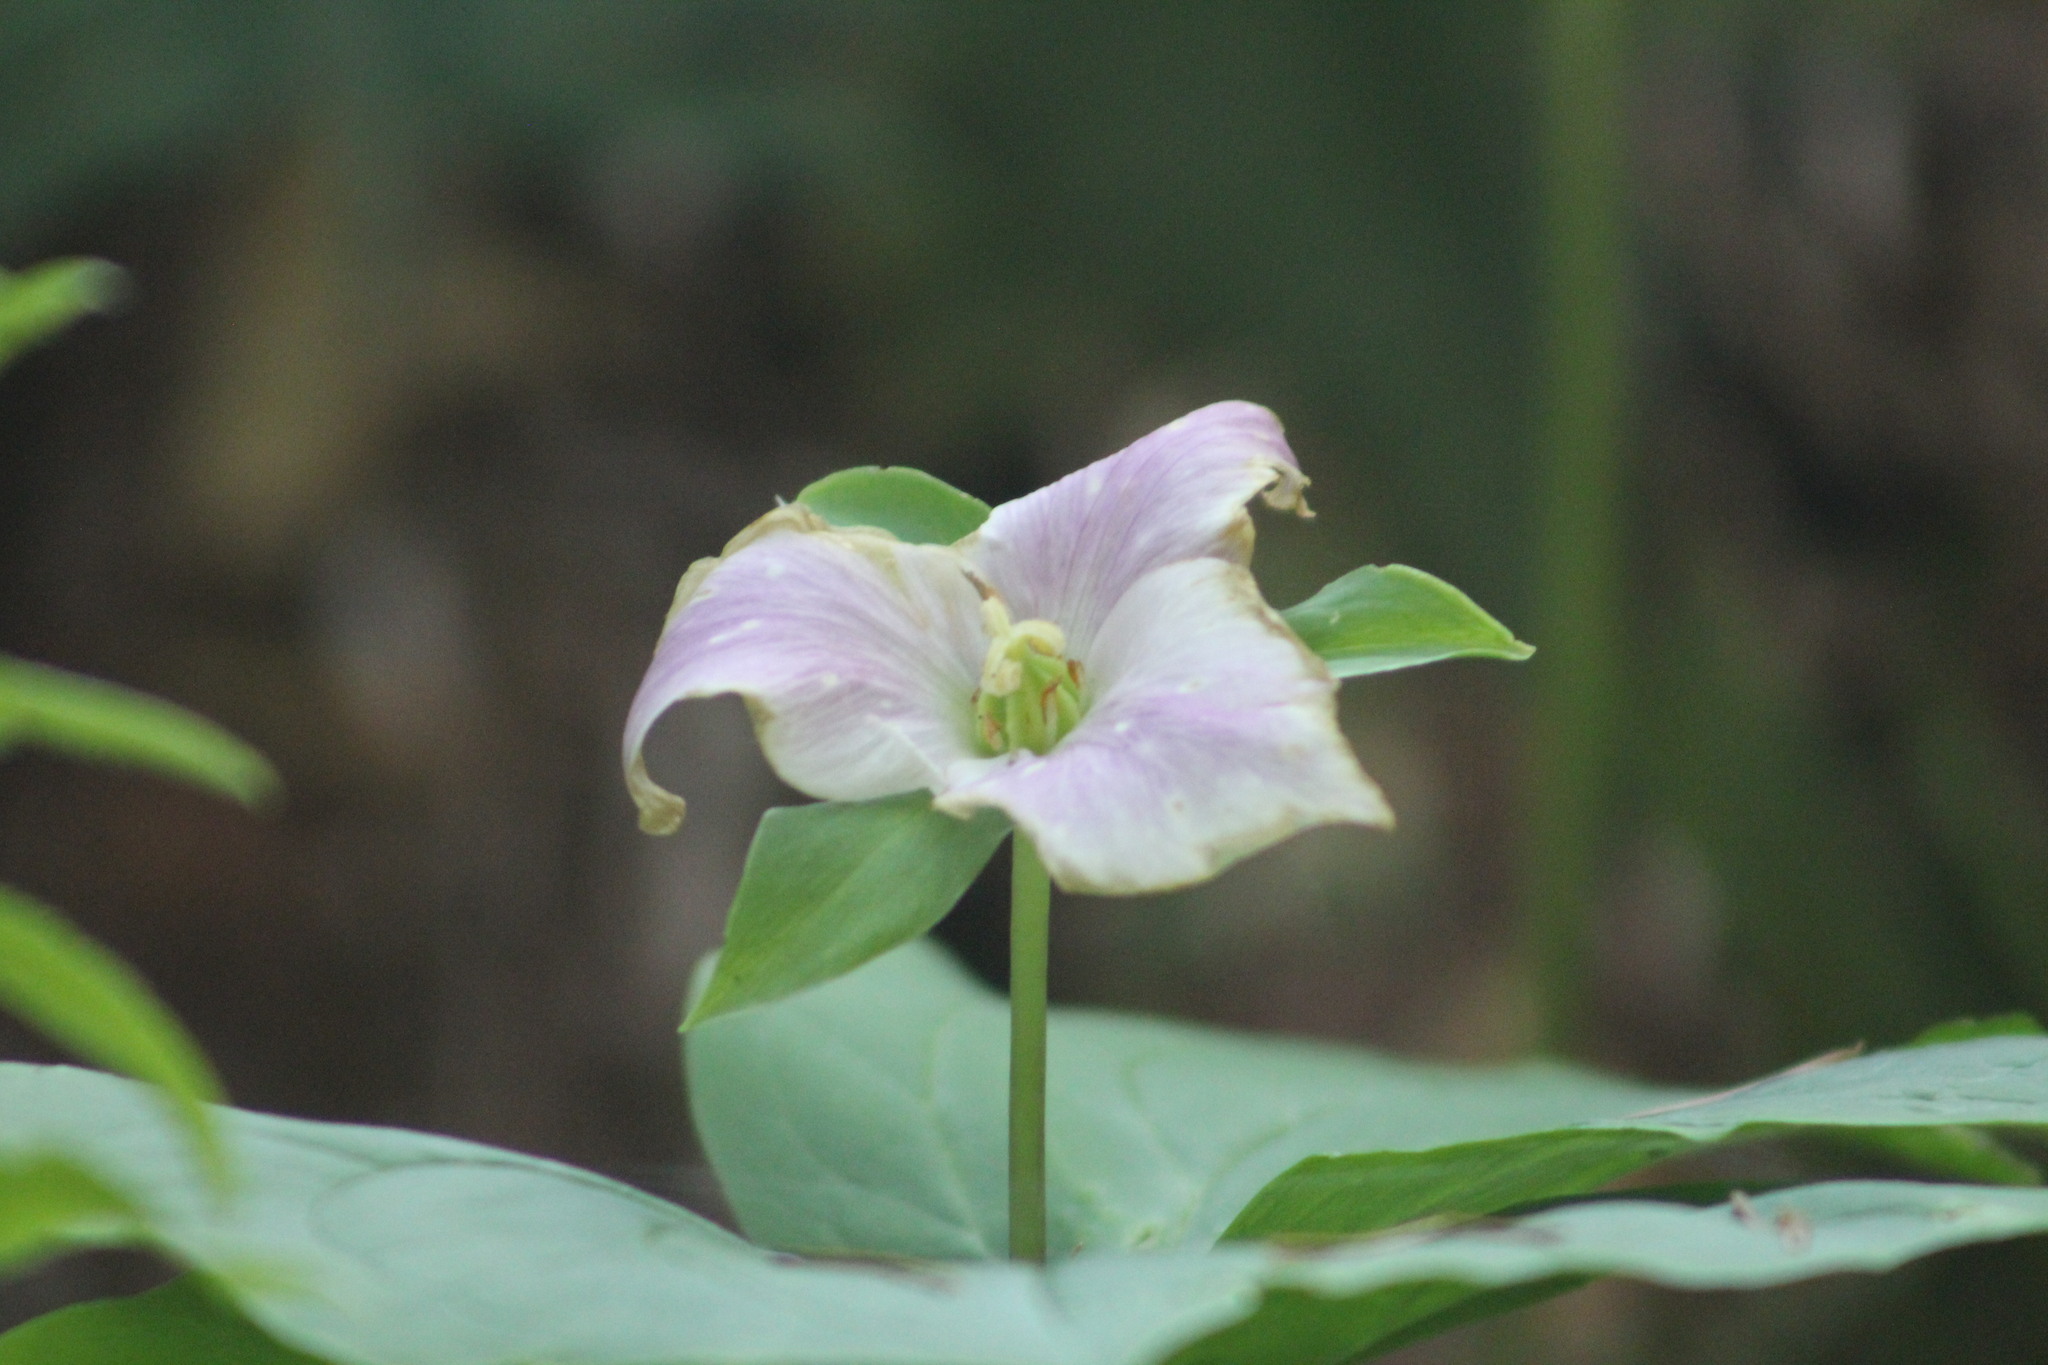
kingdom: Plantae
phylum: Tracheophyta
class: Liliopsida
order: Liliales
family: Melanthiaceae
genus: Trillium
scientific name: Trillium ovatum
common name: Pacific trillium
